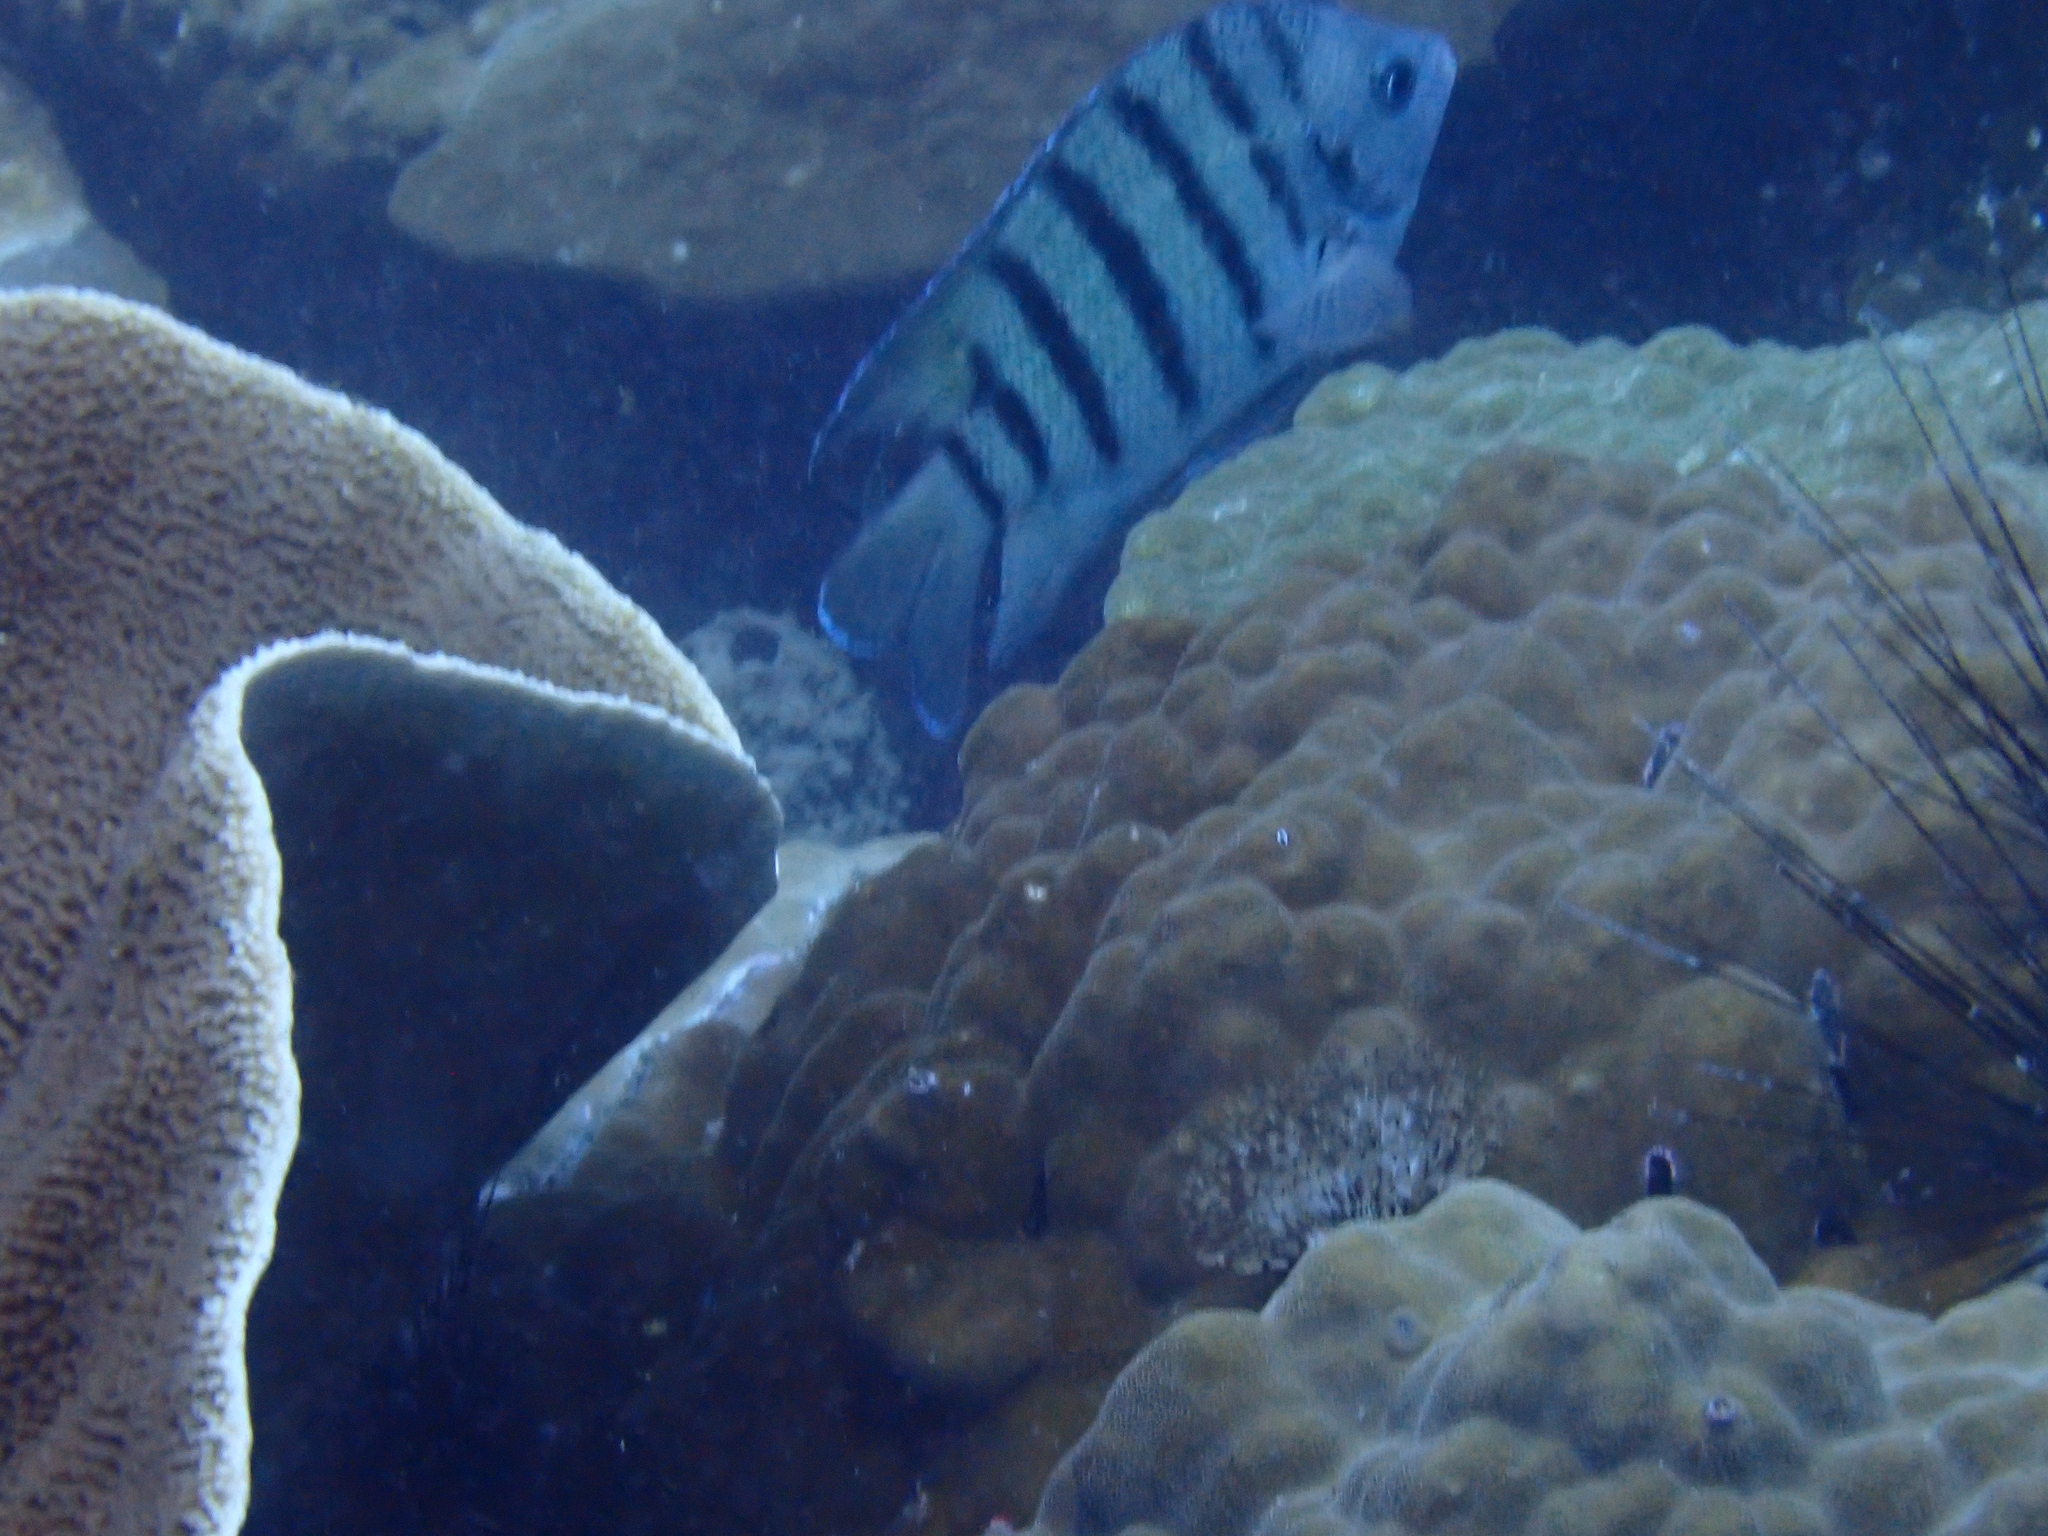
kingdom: Animalia
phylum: Chordata
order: Perciformes
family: Pomacentridae
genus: Abudefduf
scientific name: Abudefduf bengalensis
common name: Bengal sergeant
